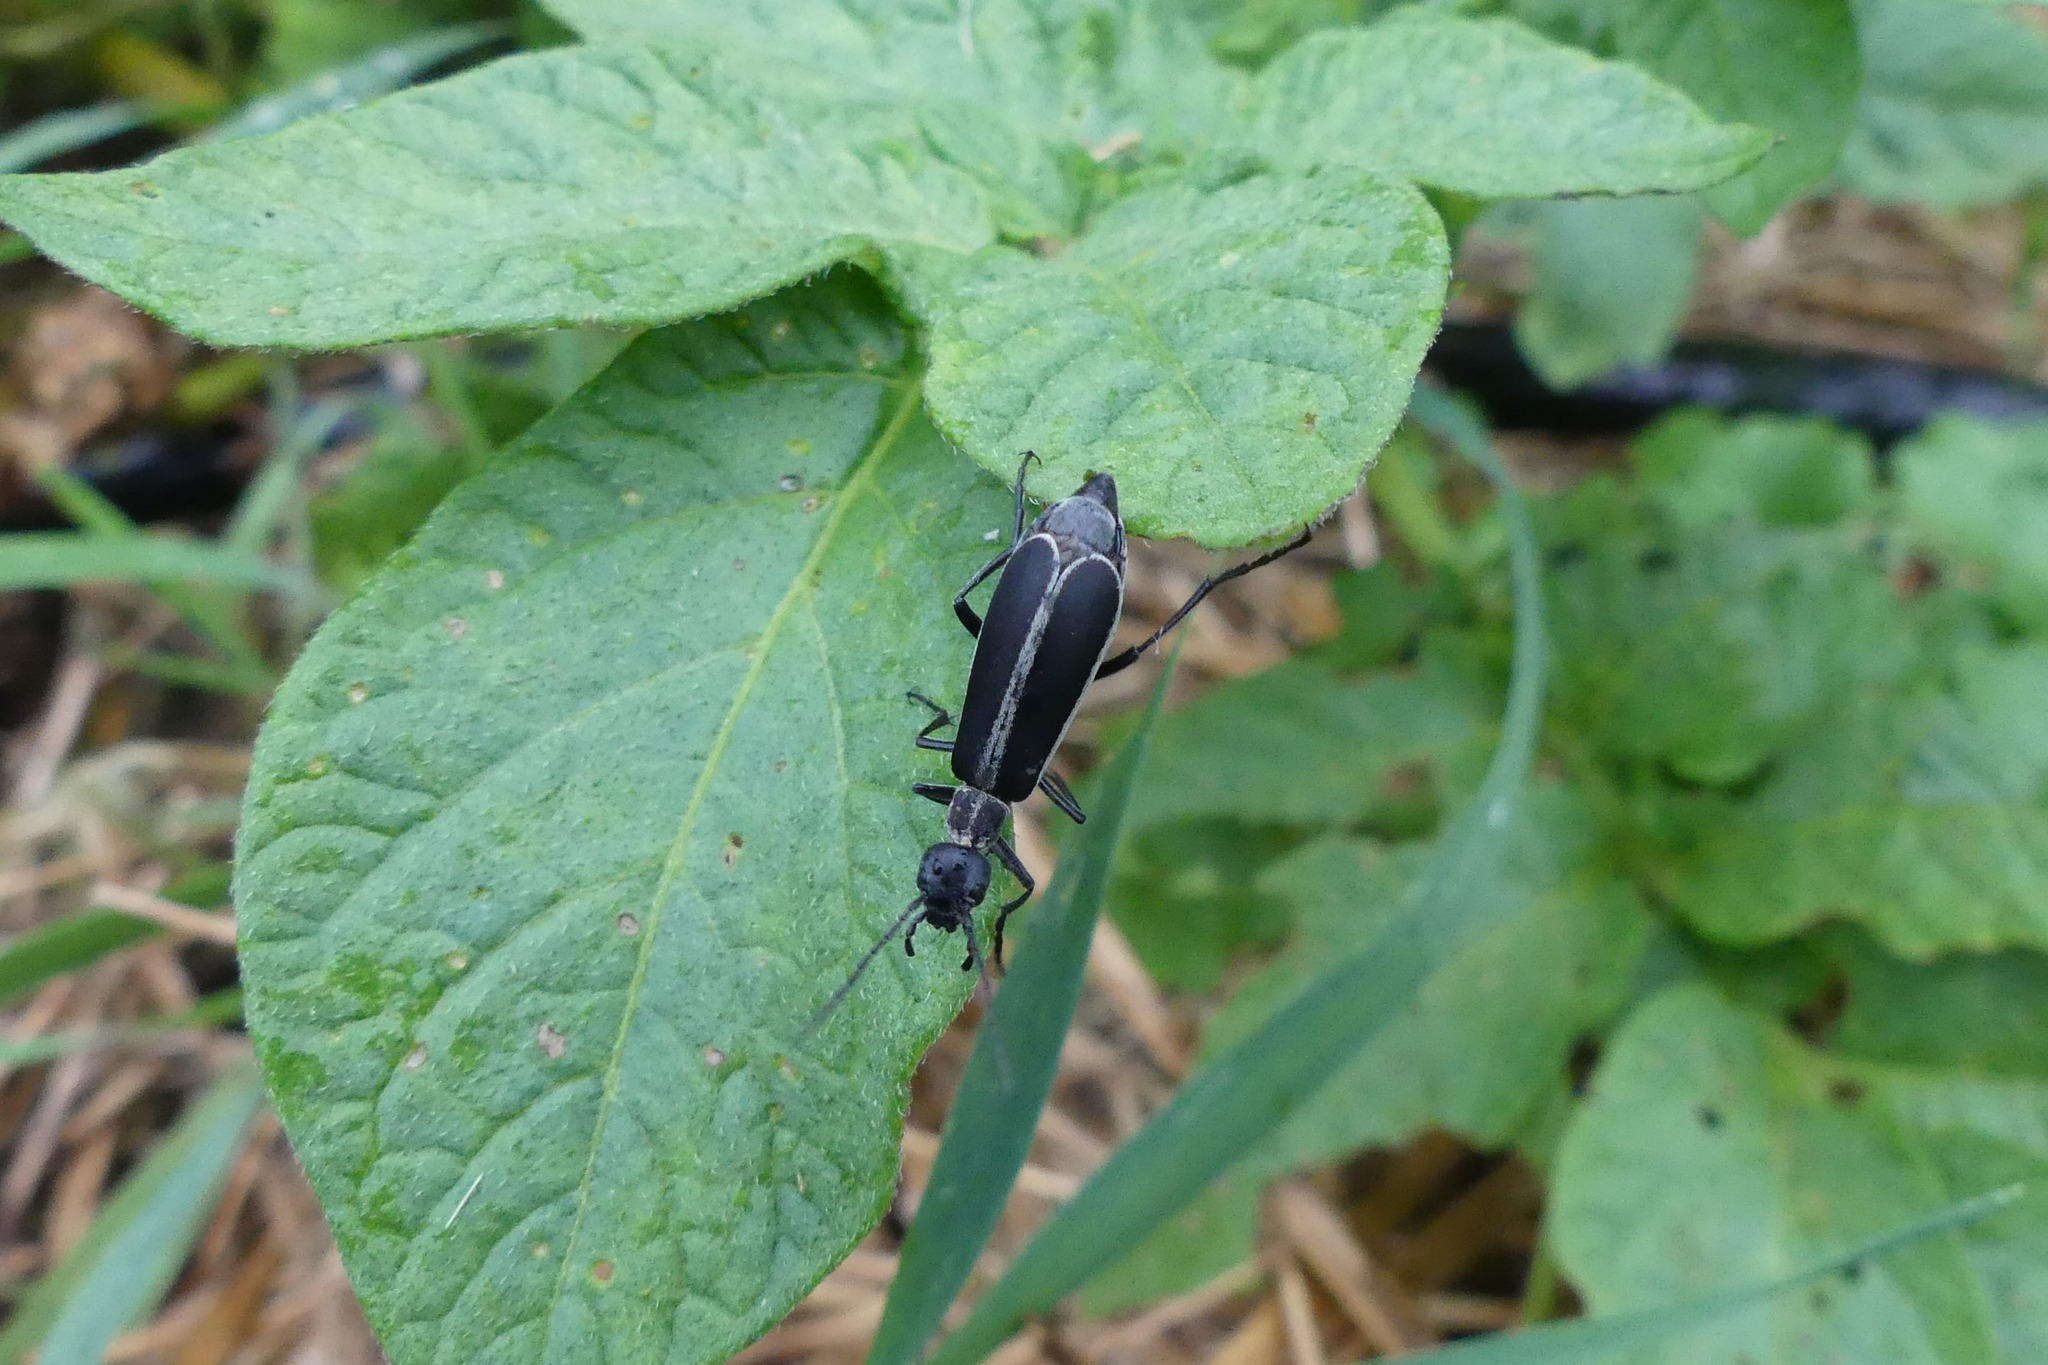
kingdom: Animalia
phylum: Arthropoda
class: Insecta
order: Coleoptera
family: Meloidae
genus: Epicauta
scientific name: Epicauta funebris
